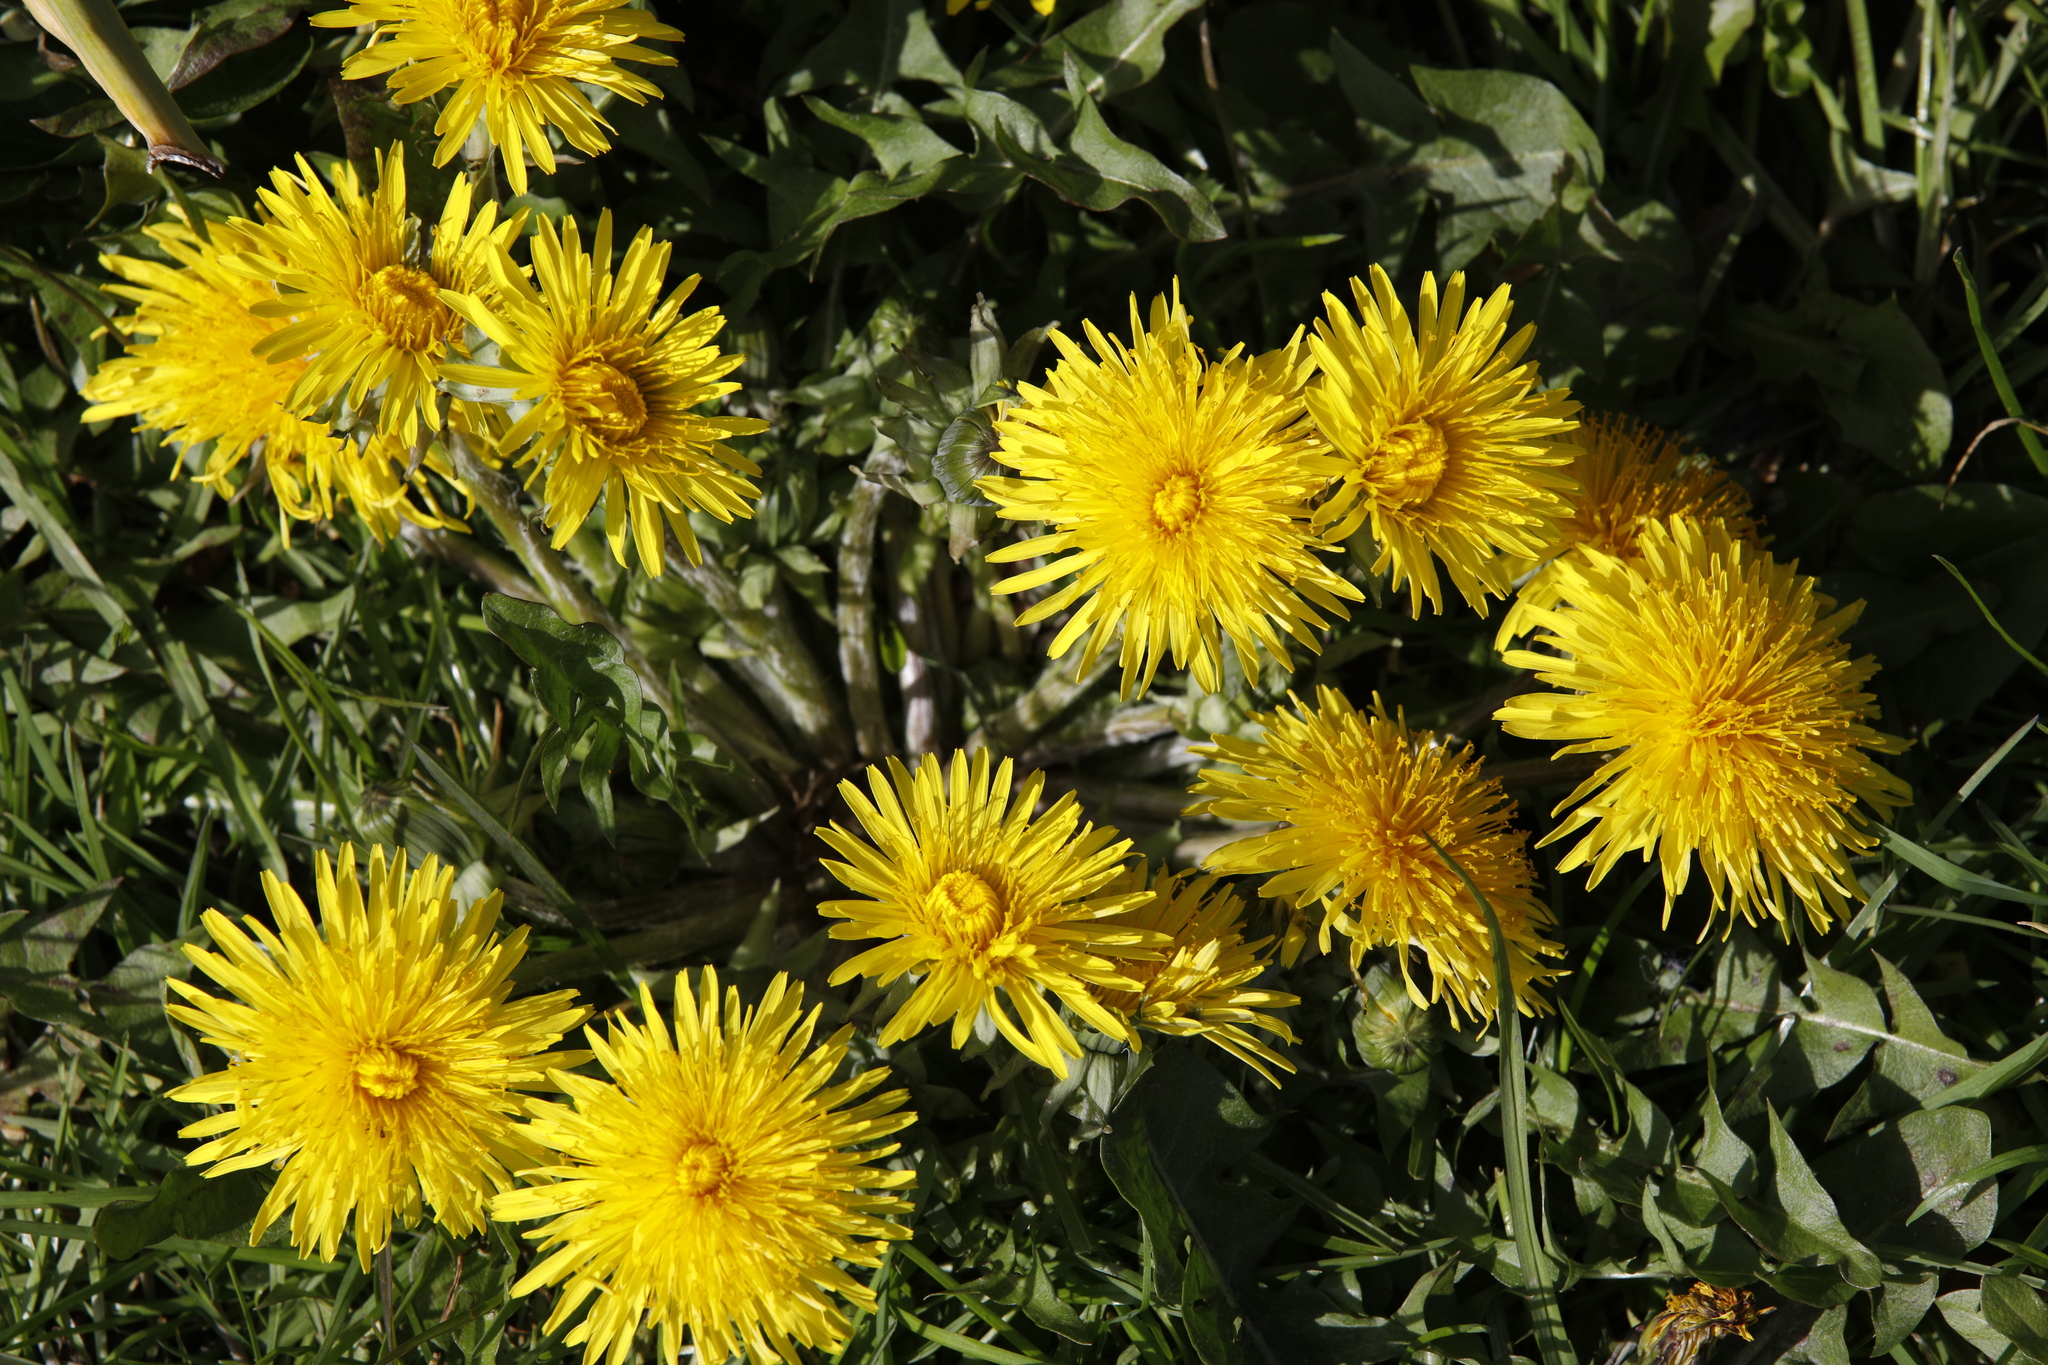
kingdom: Plantae
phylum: Tracheophyta
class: Magnoliopsida
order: Asterales
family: Asteraceae
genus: Taraxacum
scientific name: Taraxacum officinale
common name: Common dandelion
